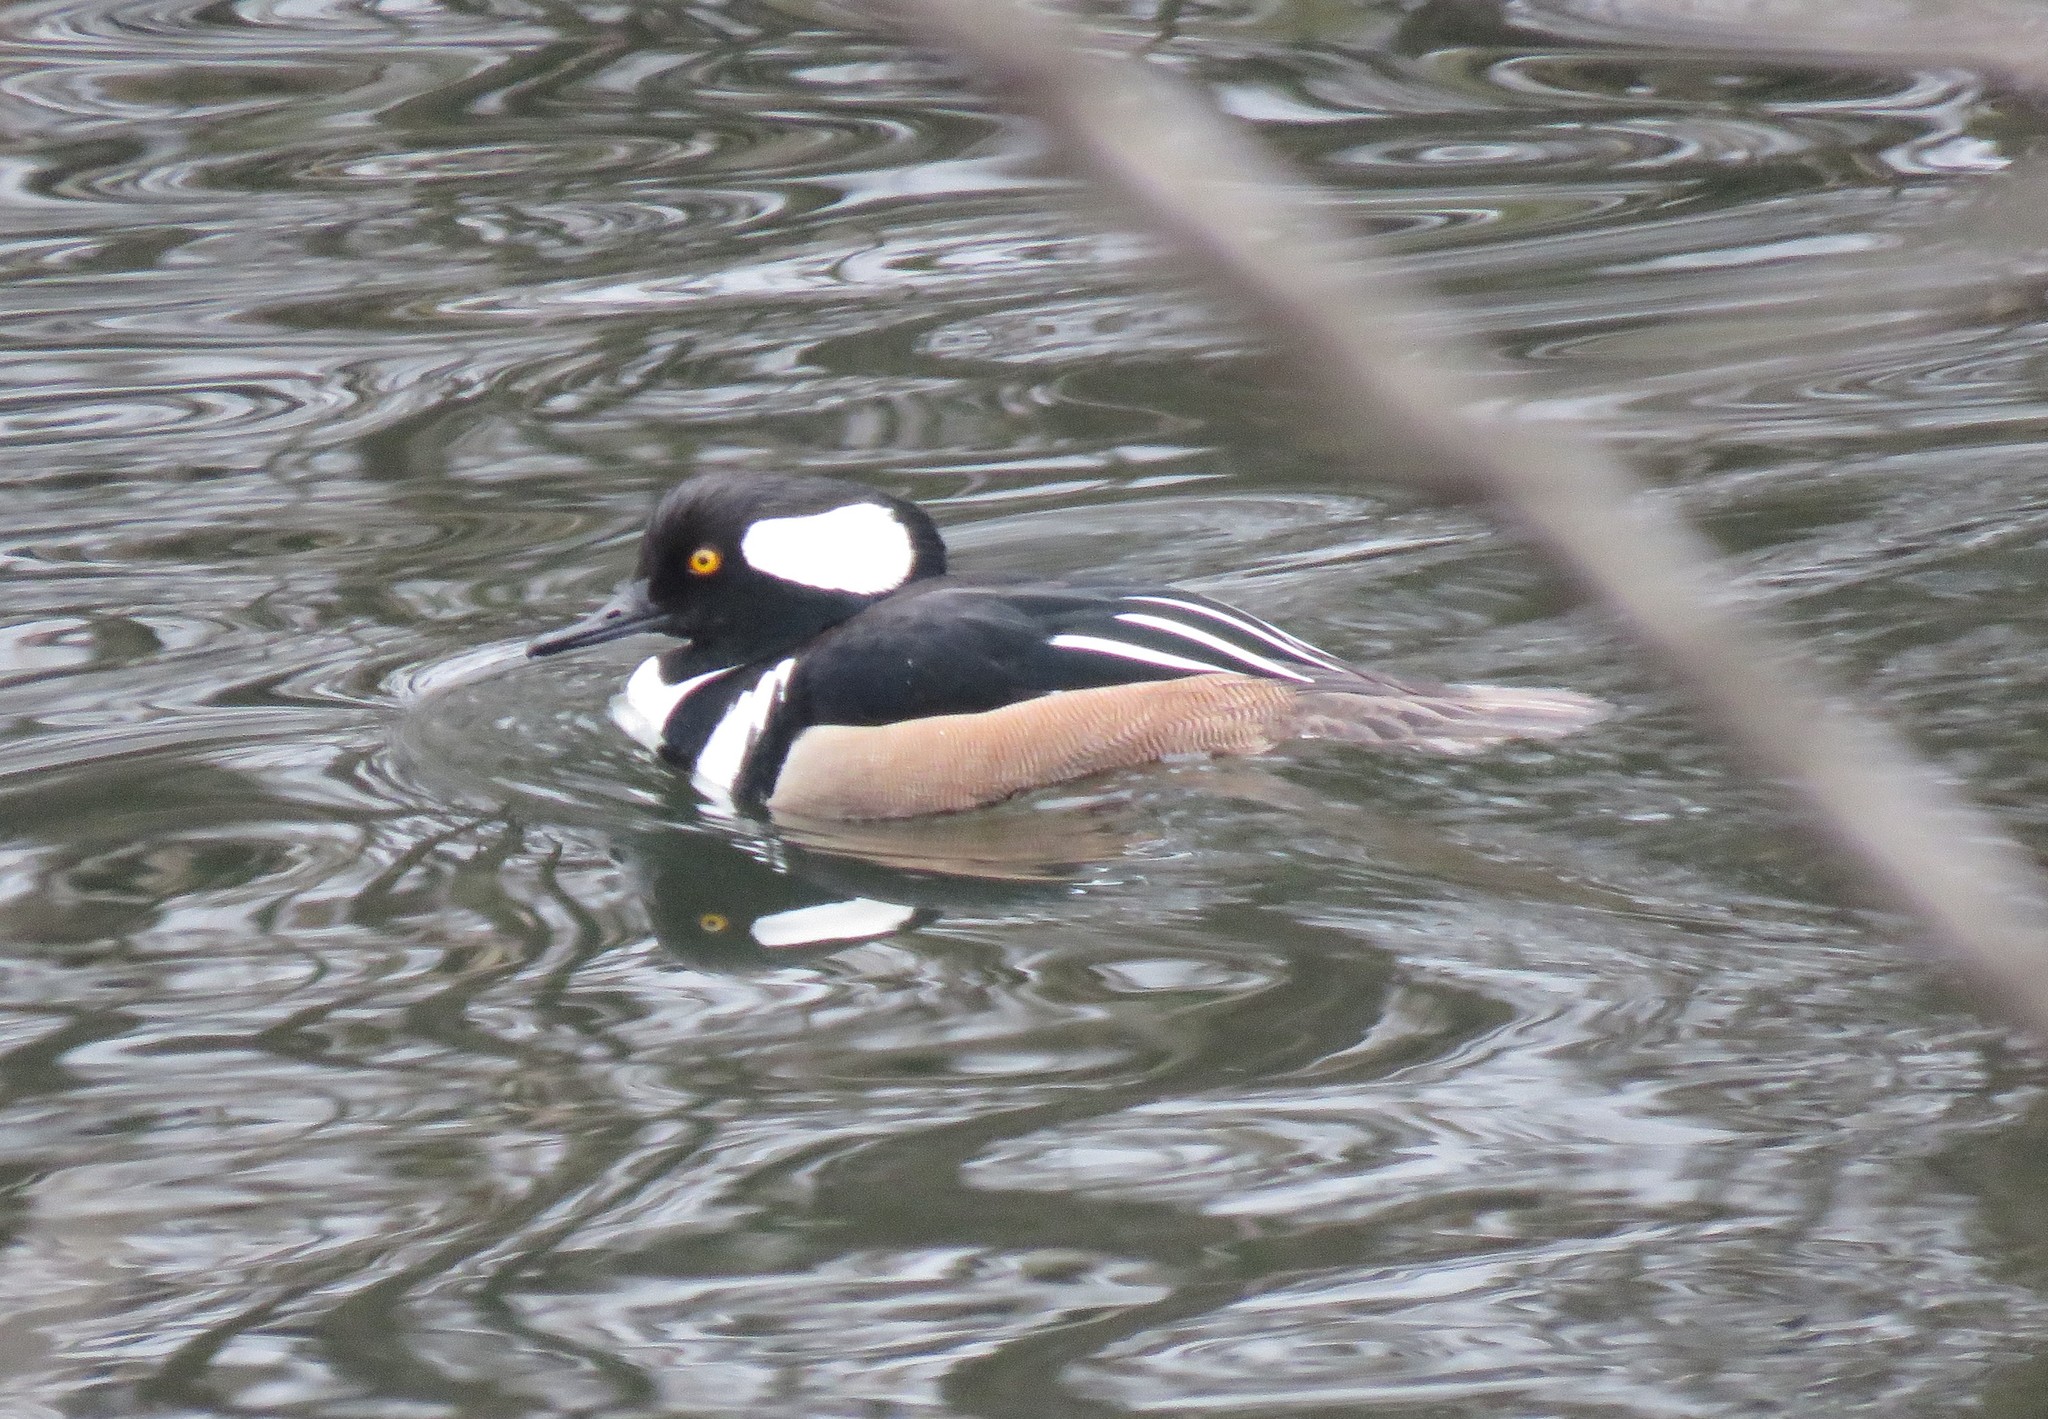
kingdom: Animalia
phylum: Chordata
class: Aves
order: Anseriformes
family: Anatidae
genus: Lophodytes
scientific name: Lophodytes cucullatus
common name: Hooded merganser
